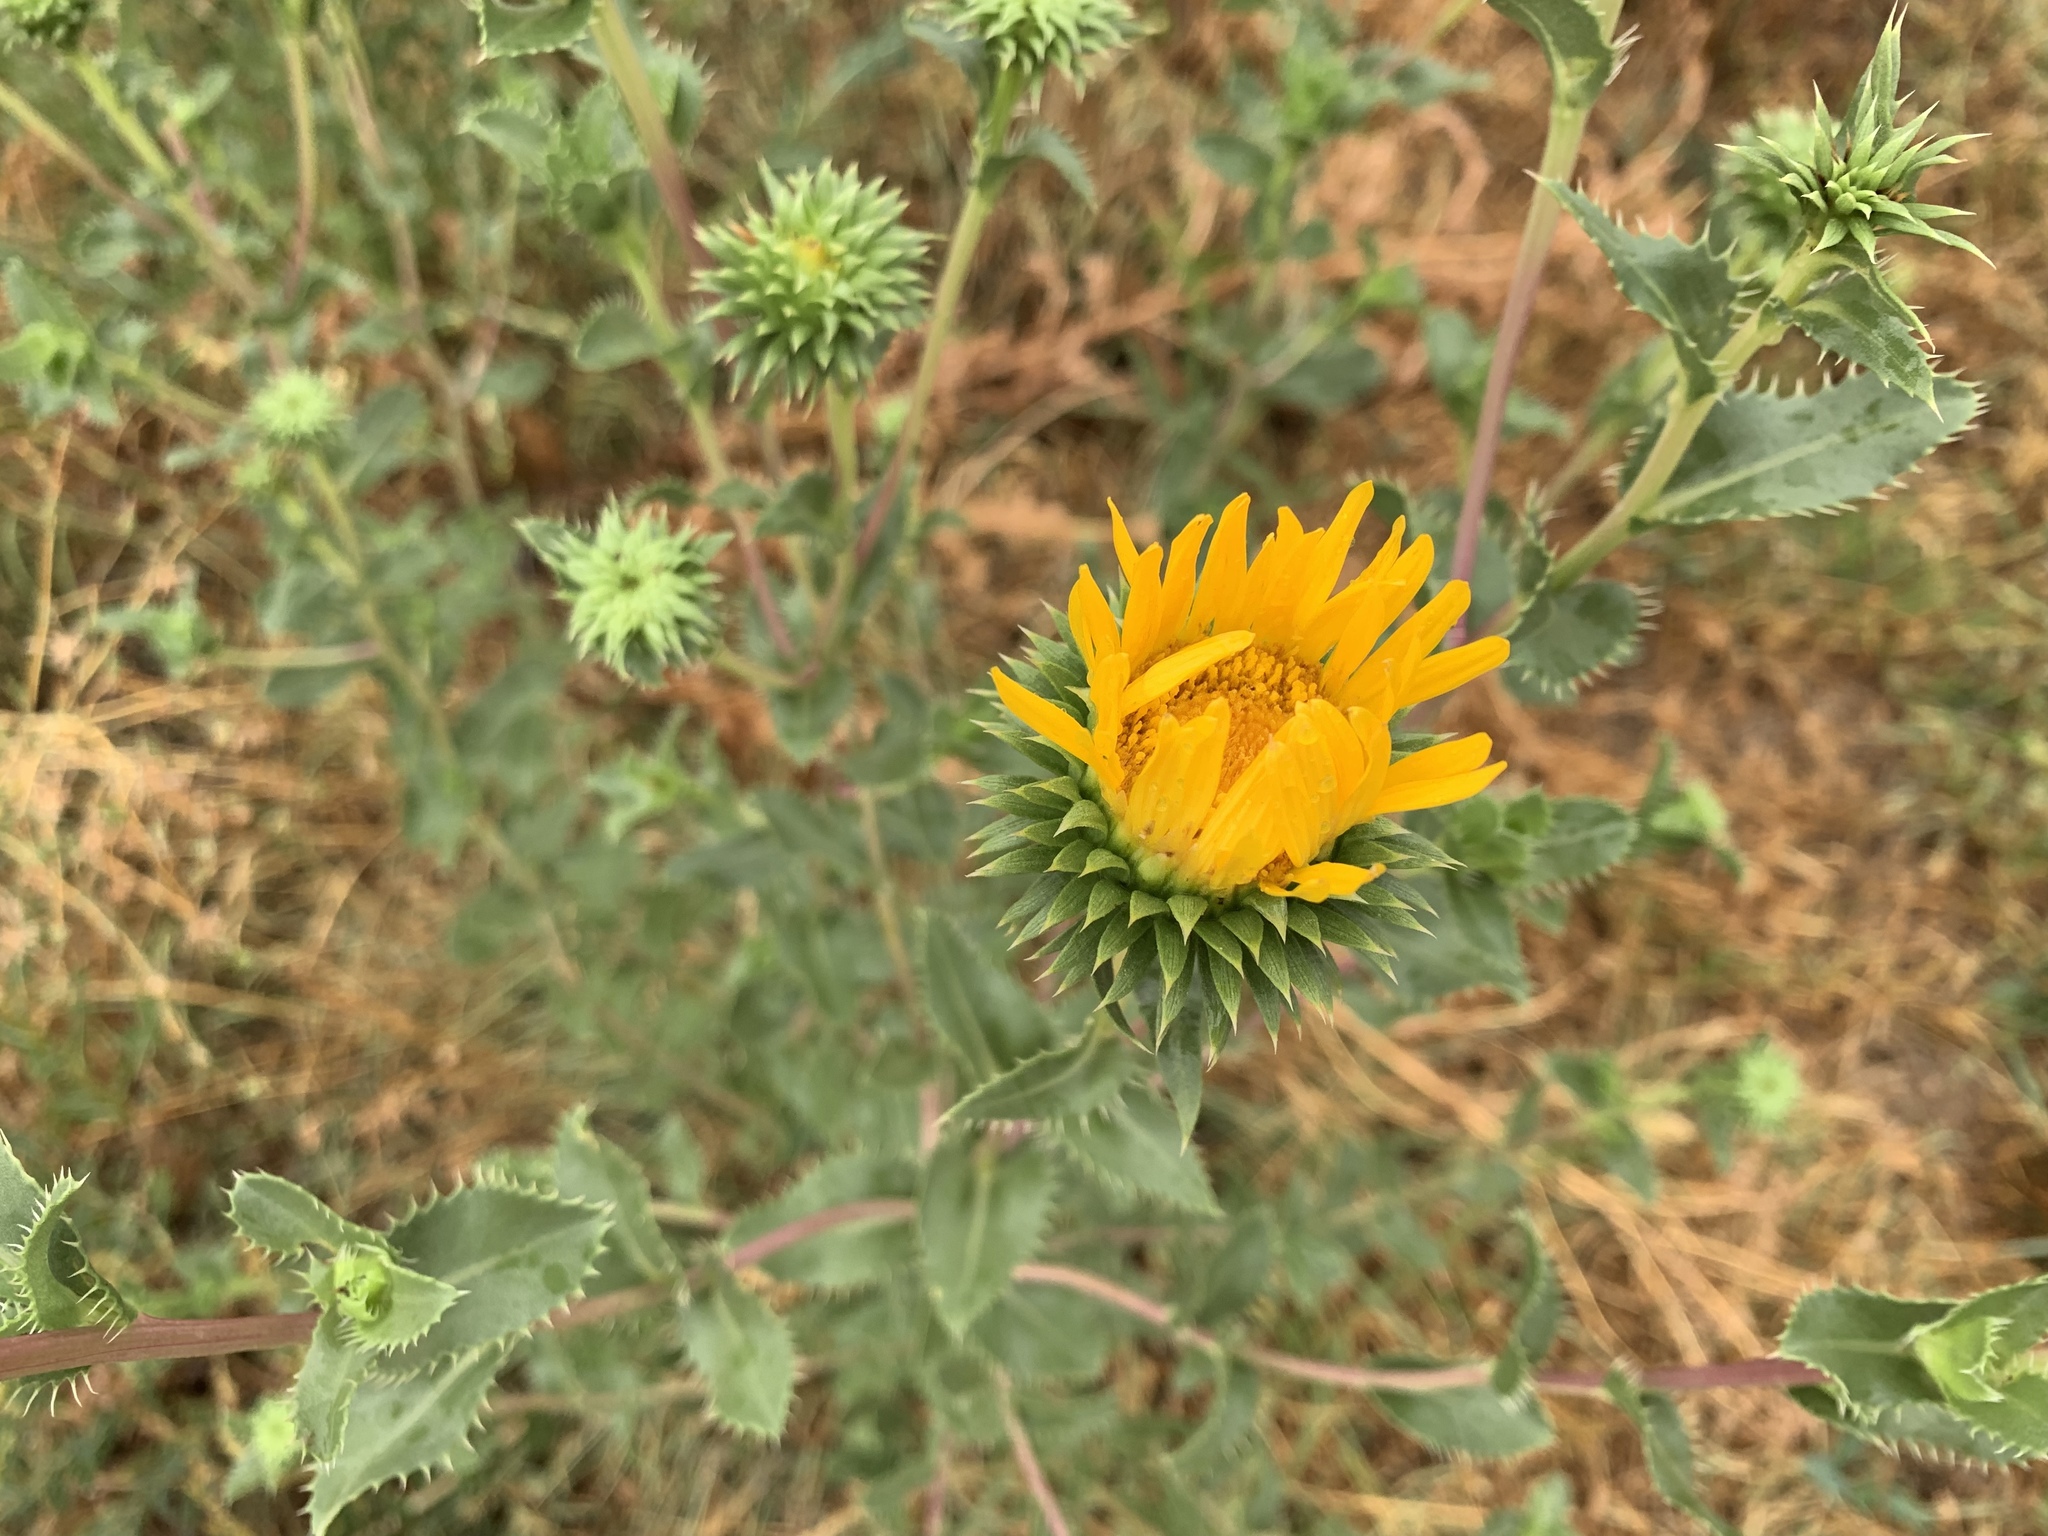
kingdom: Plantae
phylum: Tracheophyta
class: Magnoliopsida
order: Asterales
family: Asteraceae
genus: Grindelia
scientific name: Grindelia ciliata
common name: Goldenweed
